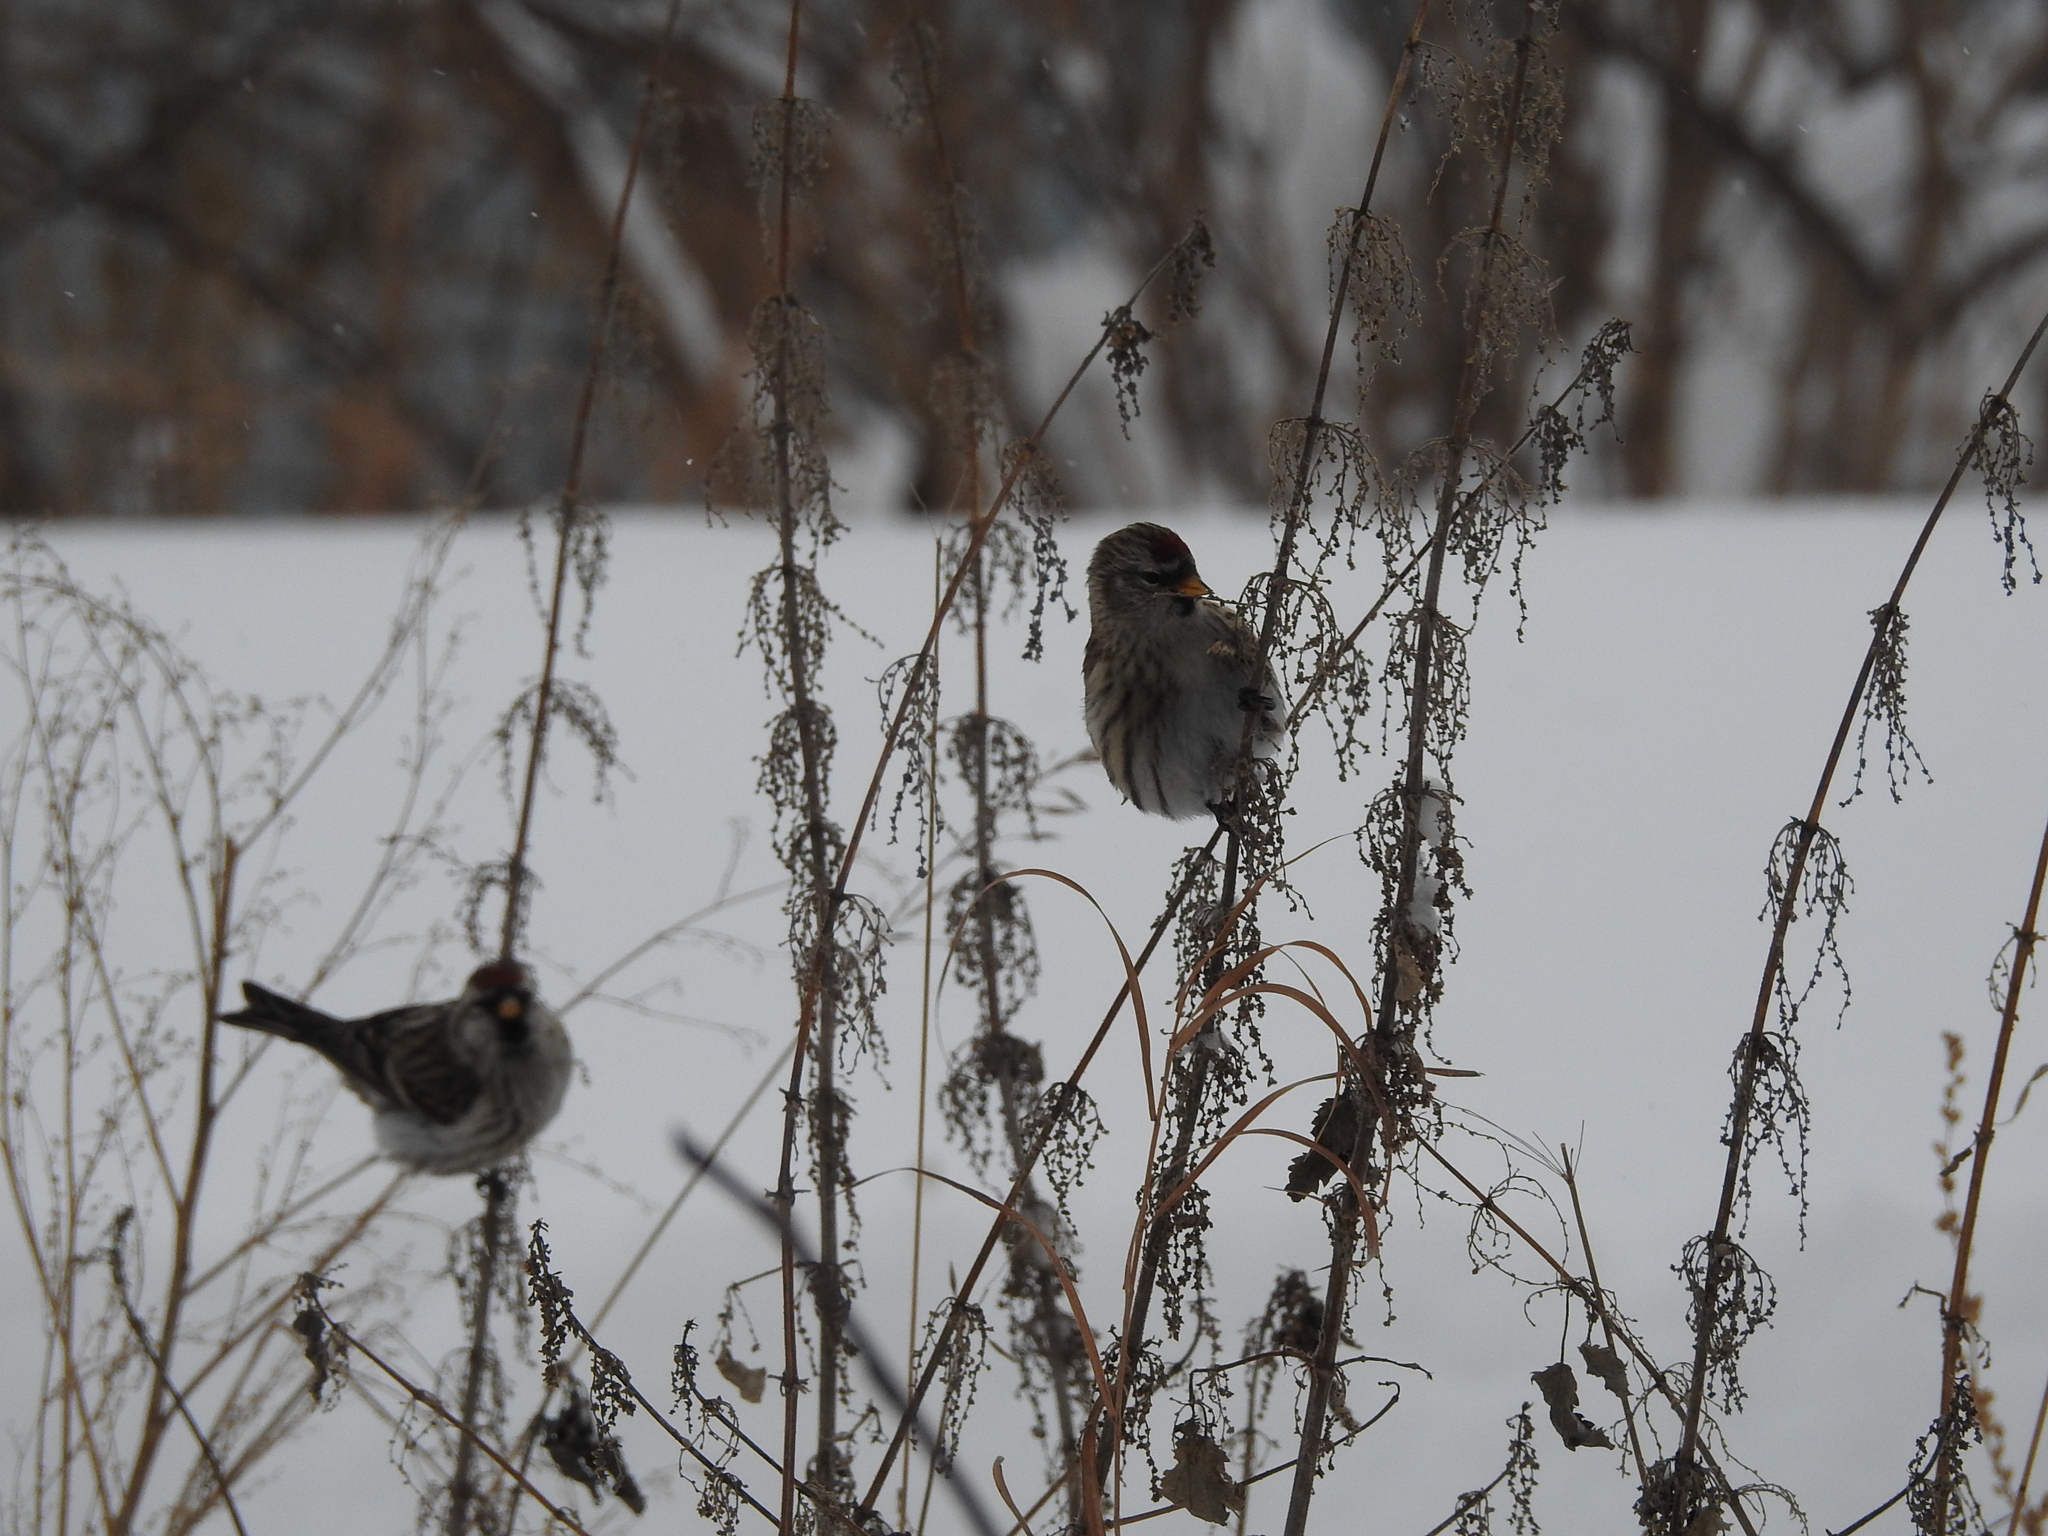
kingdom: Animalia
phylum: Chordata
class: Aves
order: Passeriformes
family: Fringillidae
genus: Acanthis
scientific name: Acanthis flammea
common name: Common redpoll
